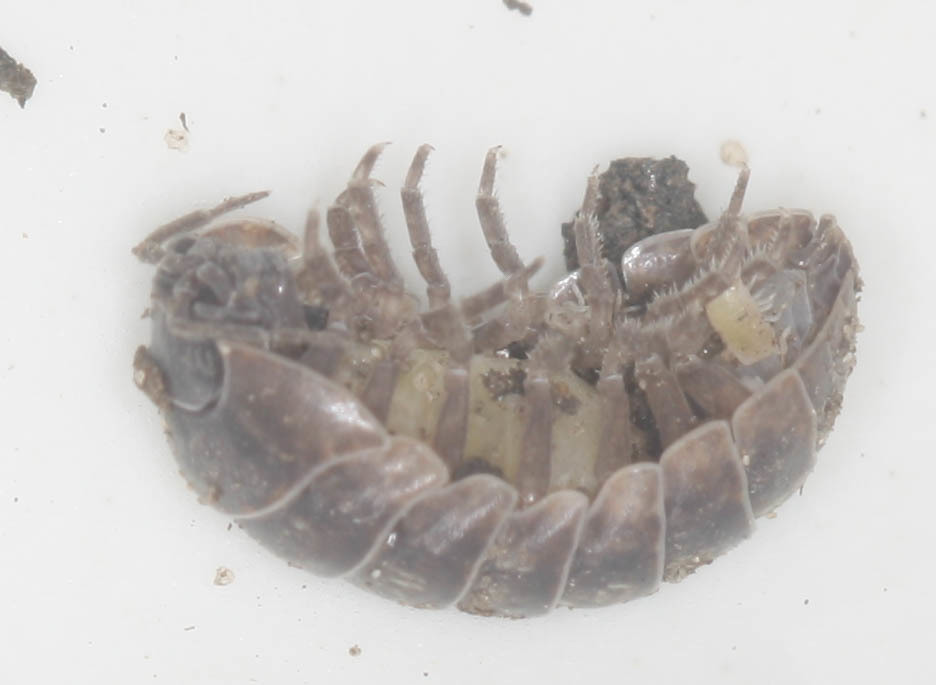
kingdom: Animalia
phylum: Arthropoda
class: Malacostraca
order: Isopoda
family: Armadillidiidae
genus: Armadillidium
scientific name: Armadillidium vulgare
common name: Common pill woodlouse
